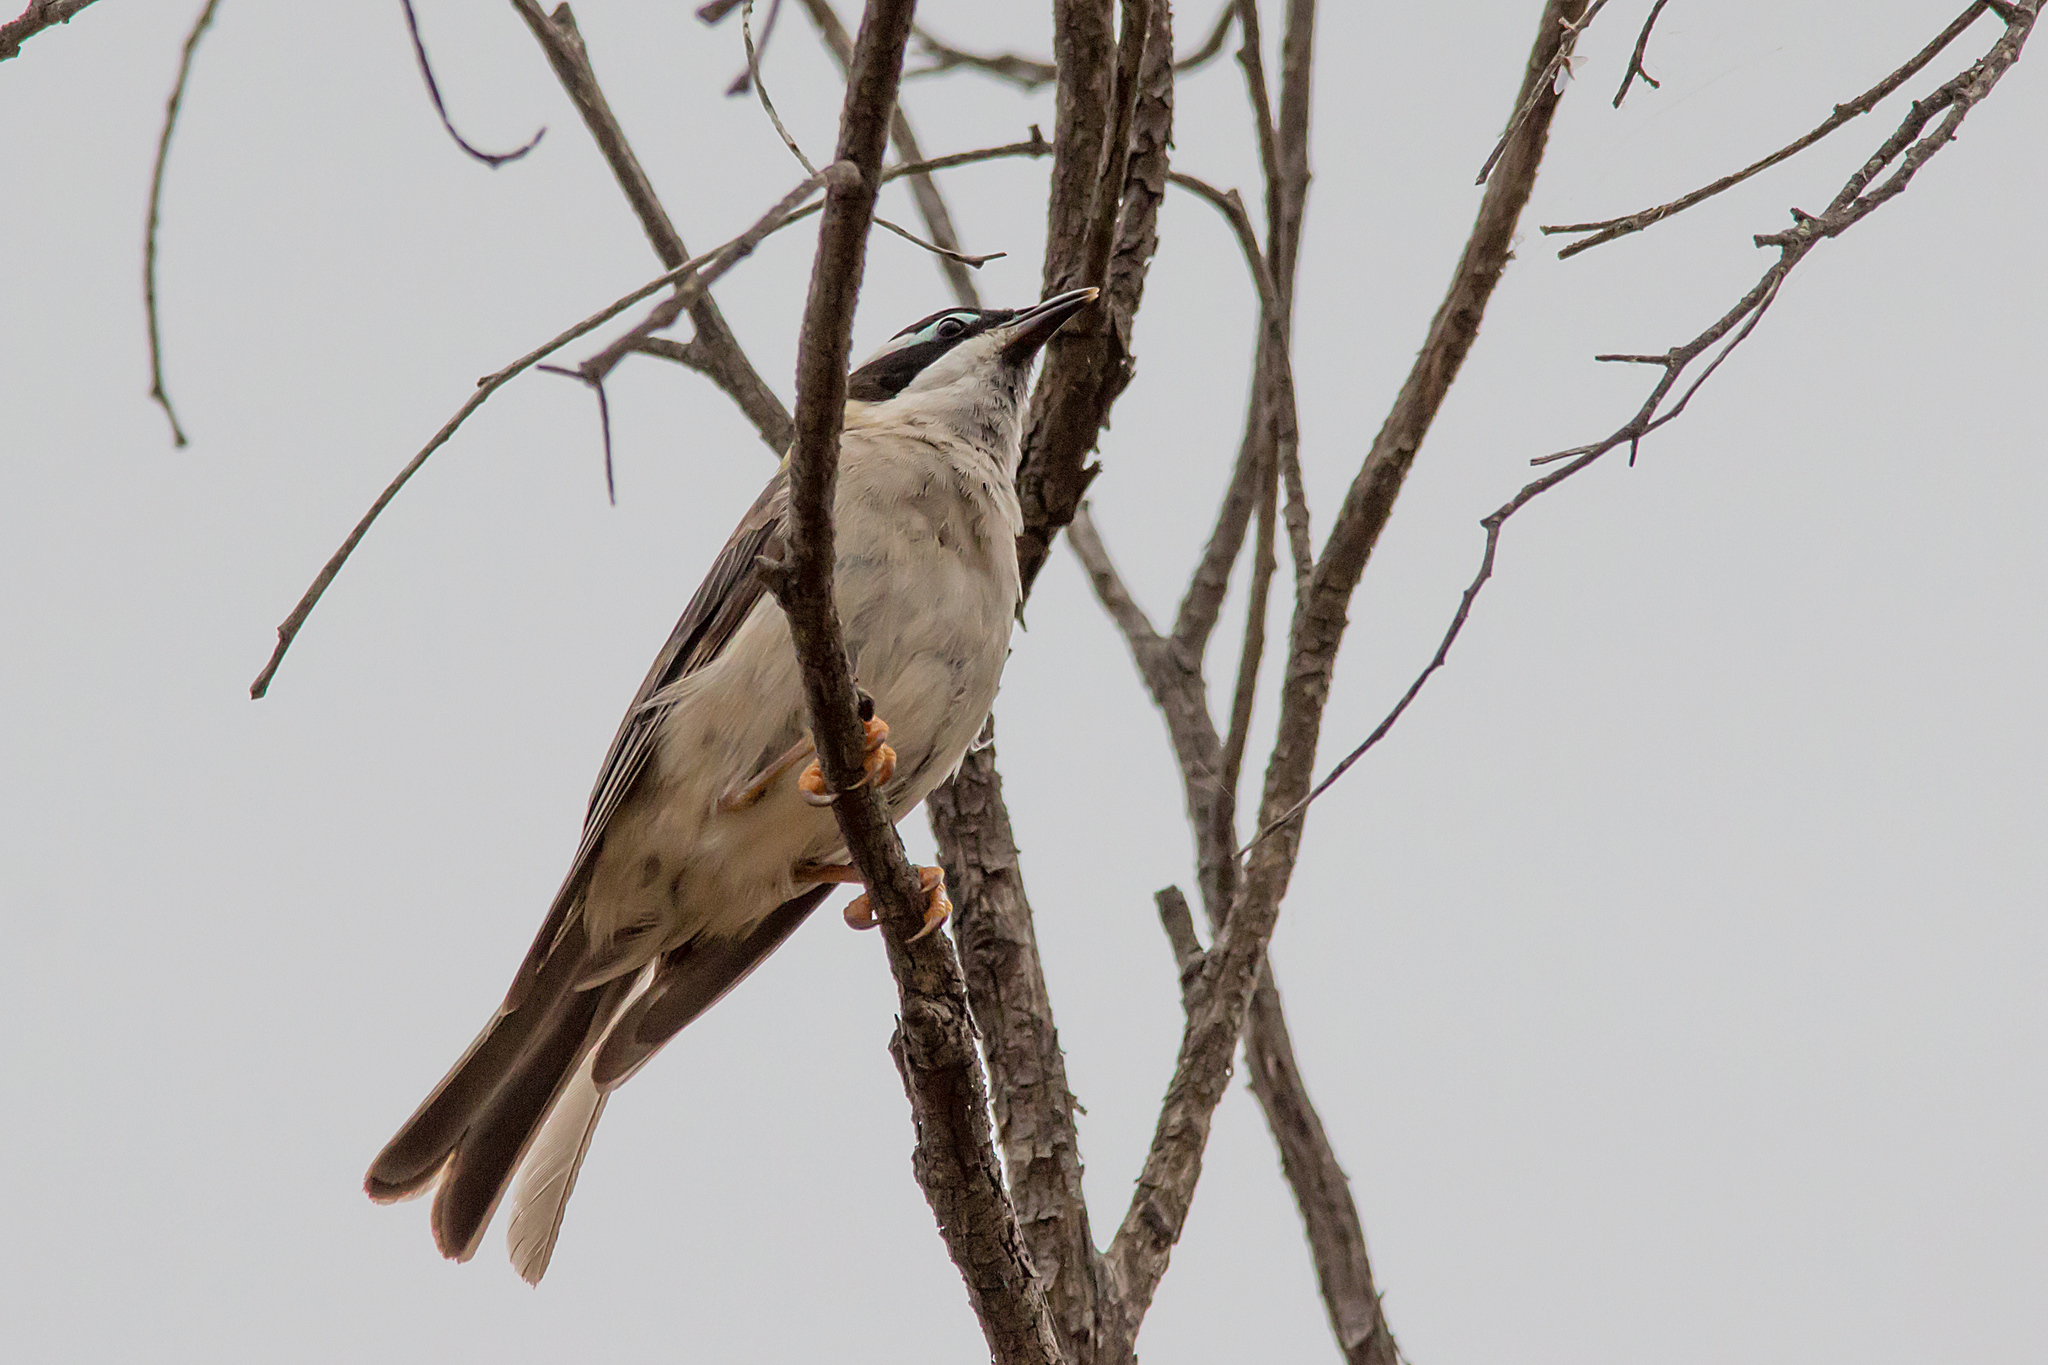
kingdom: Animalia
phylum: Chordata
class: Aves
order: Passeriformes
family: Meliphagidae
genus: Melithreptus
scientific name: Melithreptus gularis
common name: Black-chinned honeyeater
